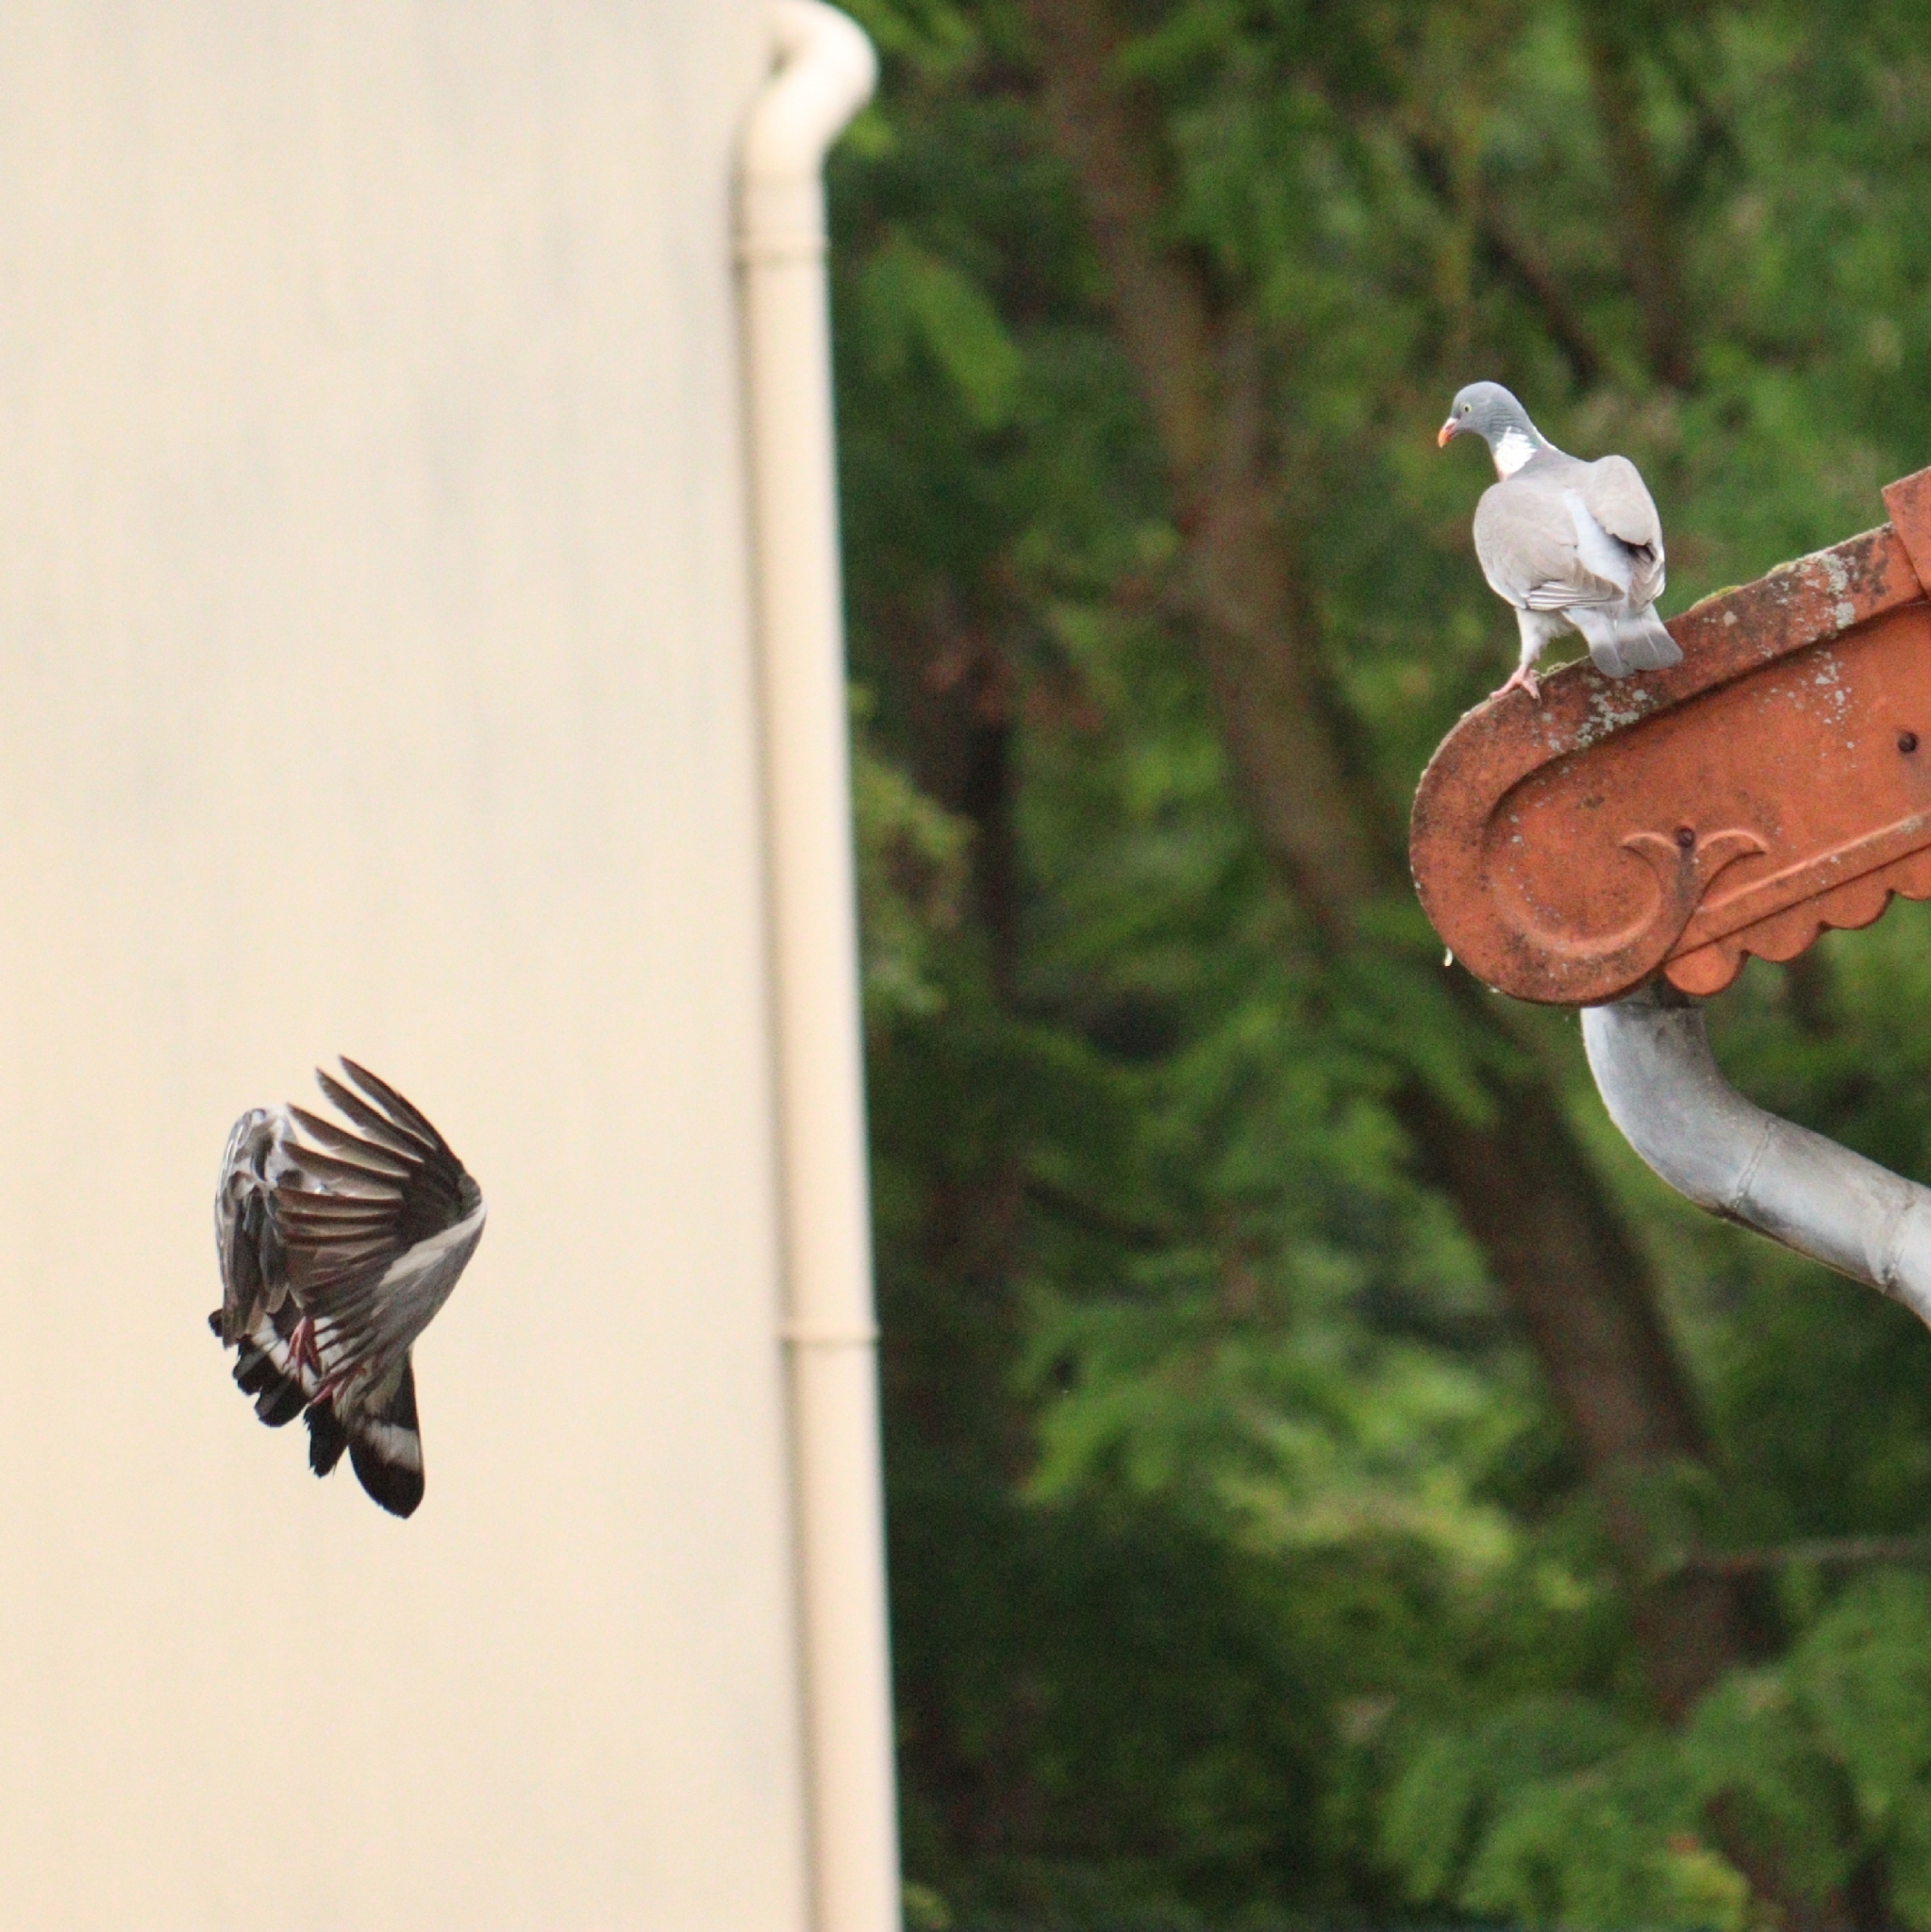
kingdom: Animalia
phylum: Chordata
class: Aves
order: Columbiformes
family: Columbidae
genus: Columba
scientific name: Columba palumbus
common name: Common wood pigeon
